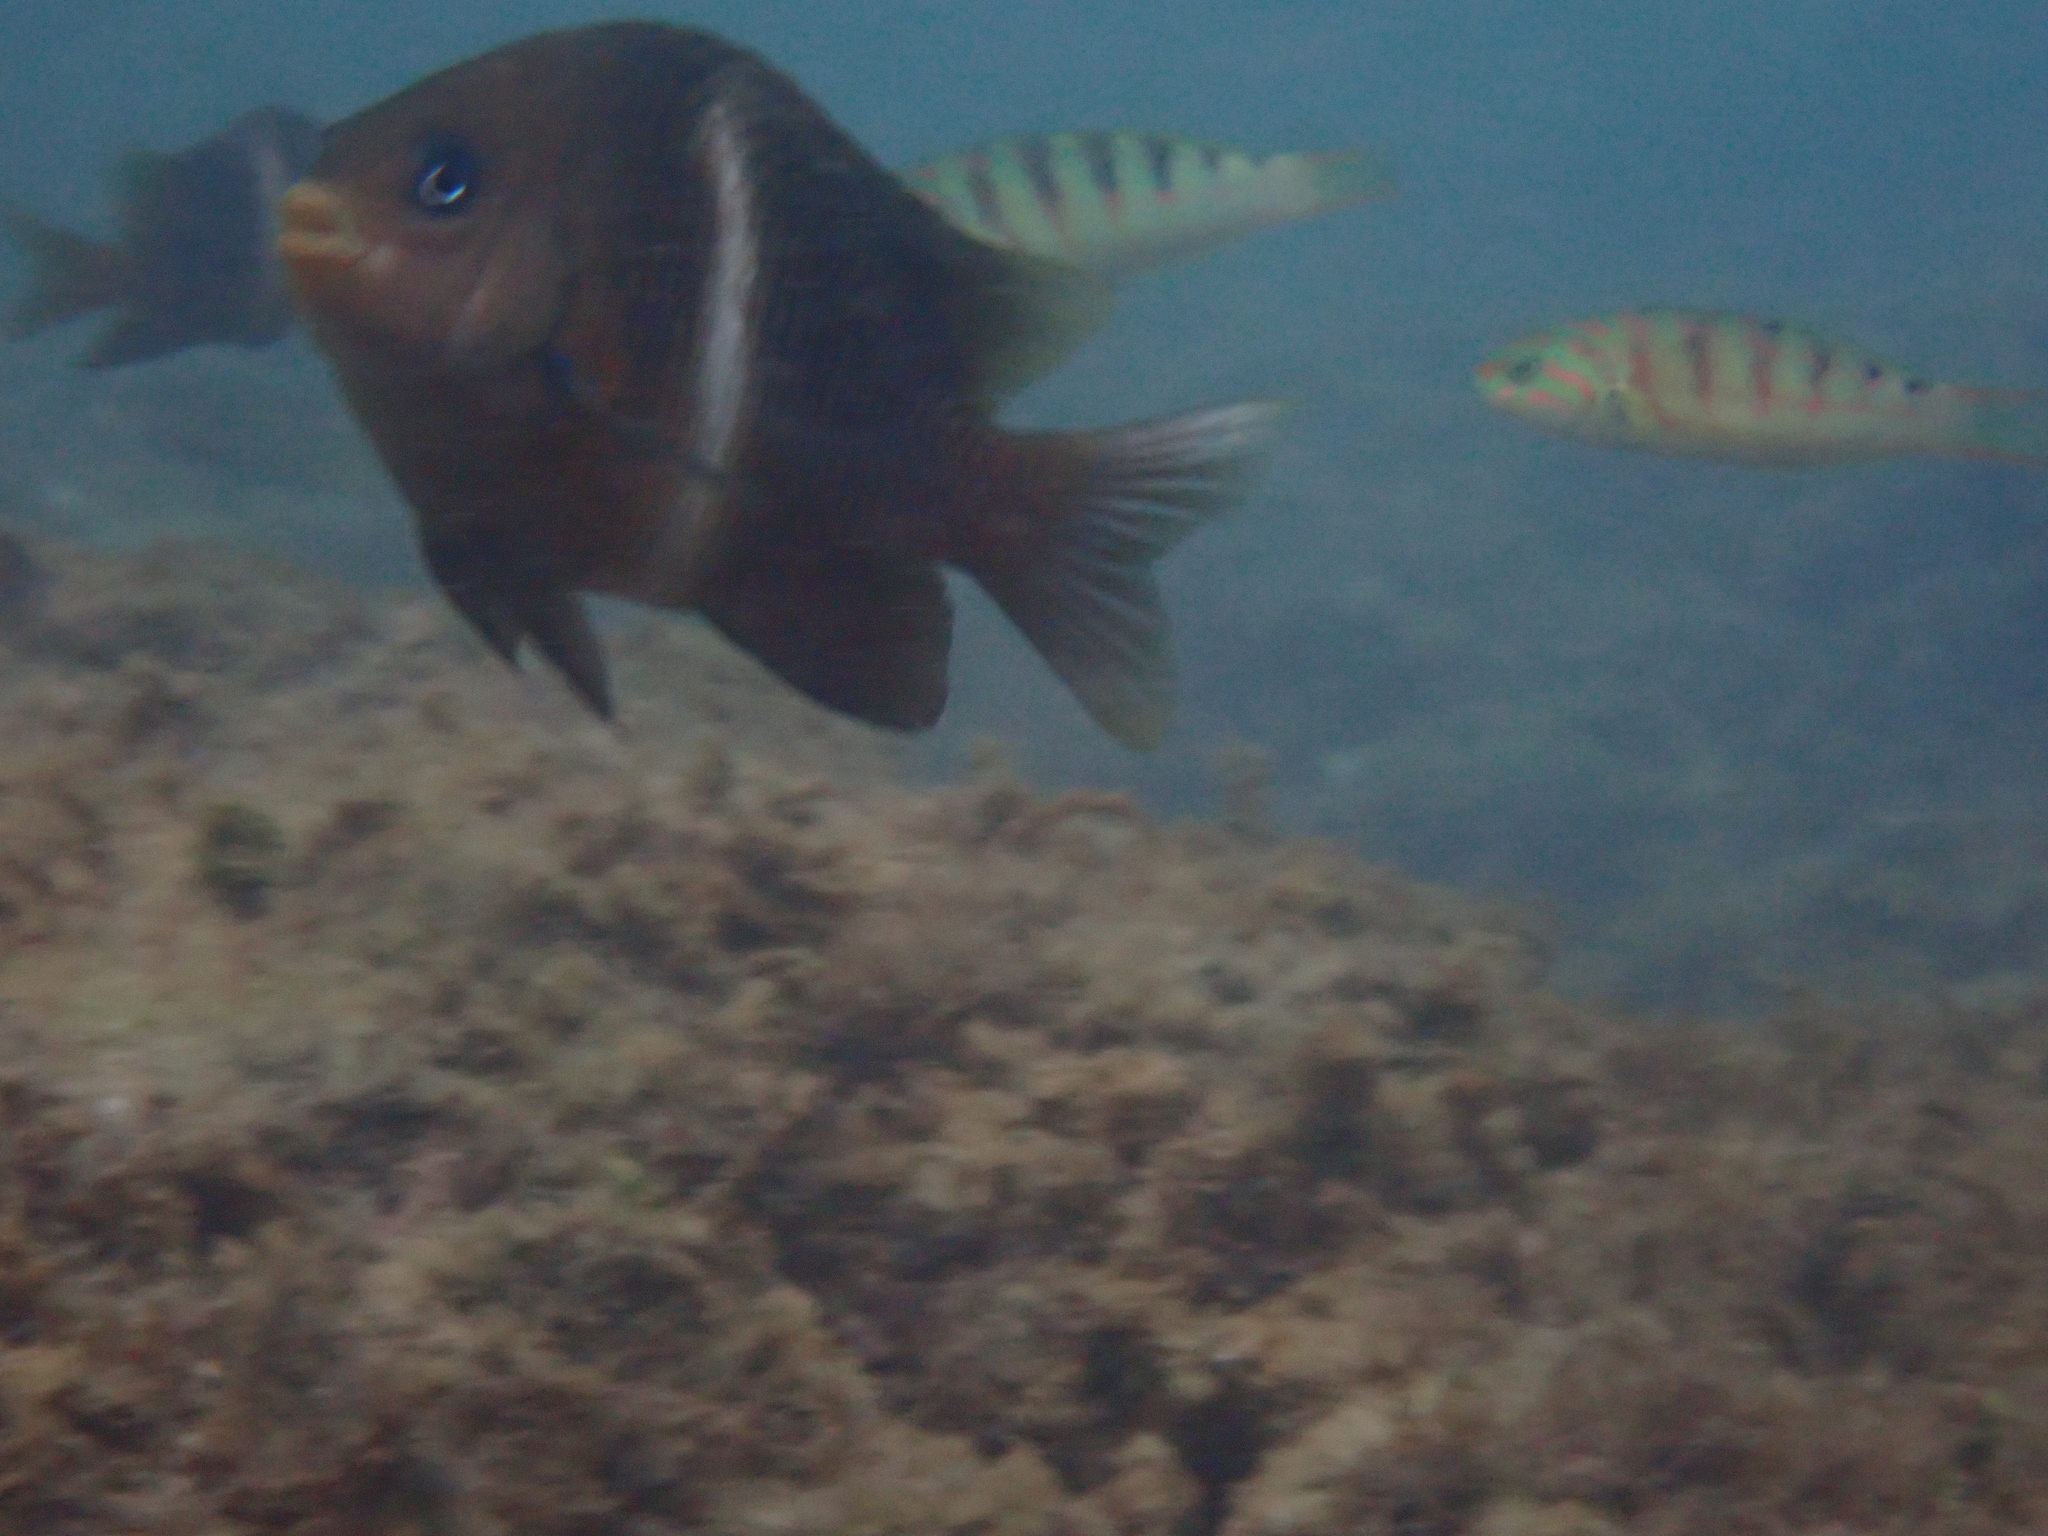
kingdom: Animalia
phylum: Chordata
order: Perciformes
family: Pomacentridae
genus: Plectroglyphidodon
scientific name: Plectroglyphidodon leucozonus
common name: White-band damsel
